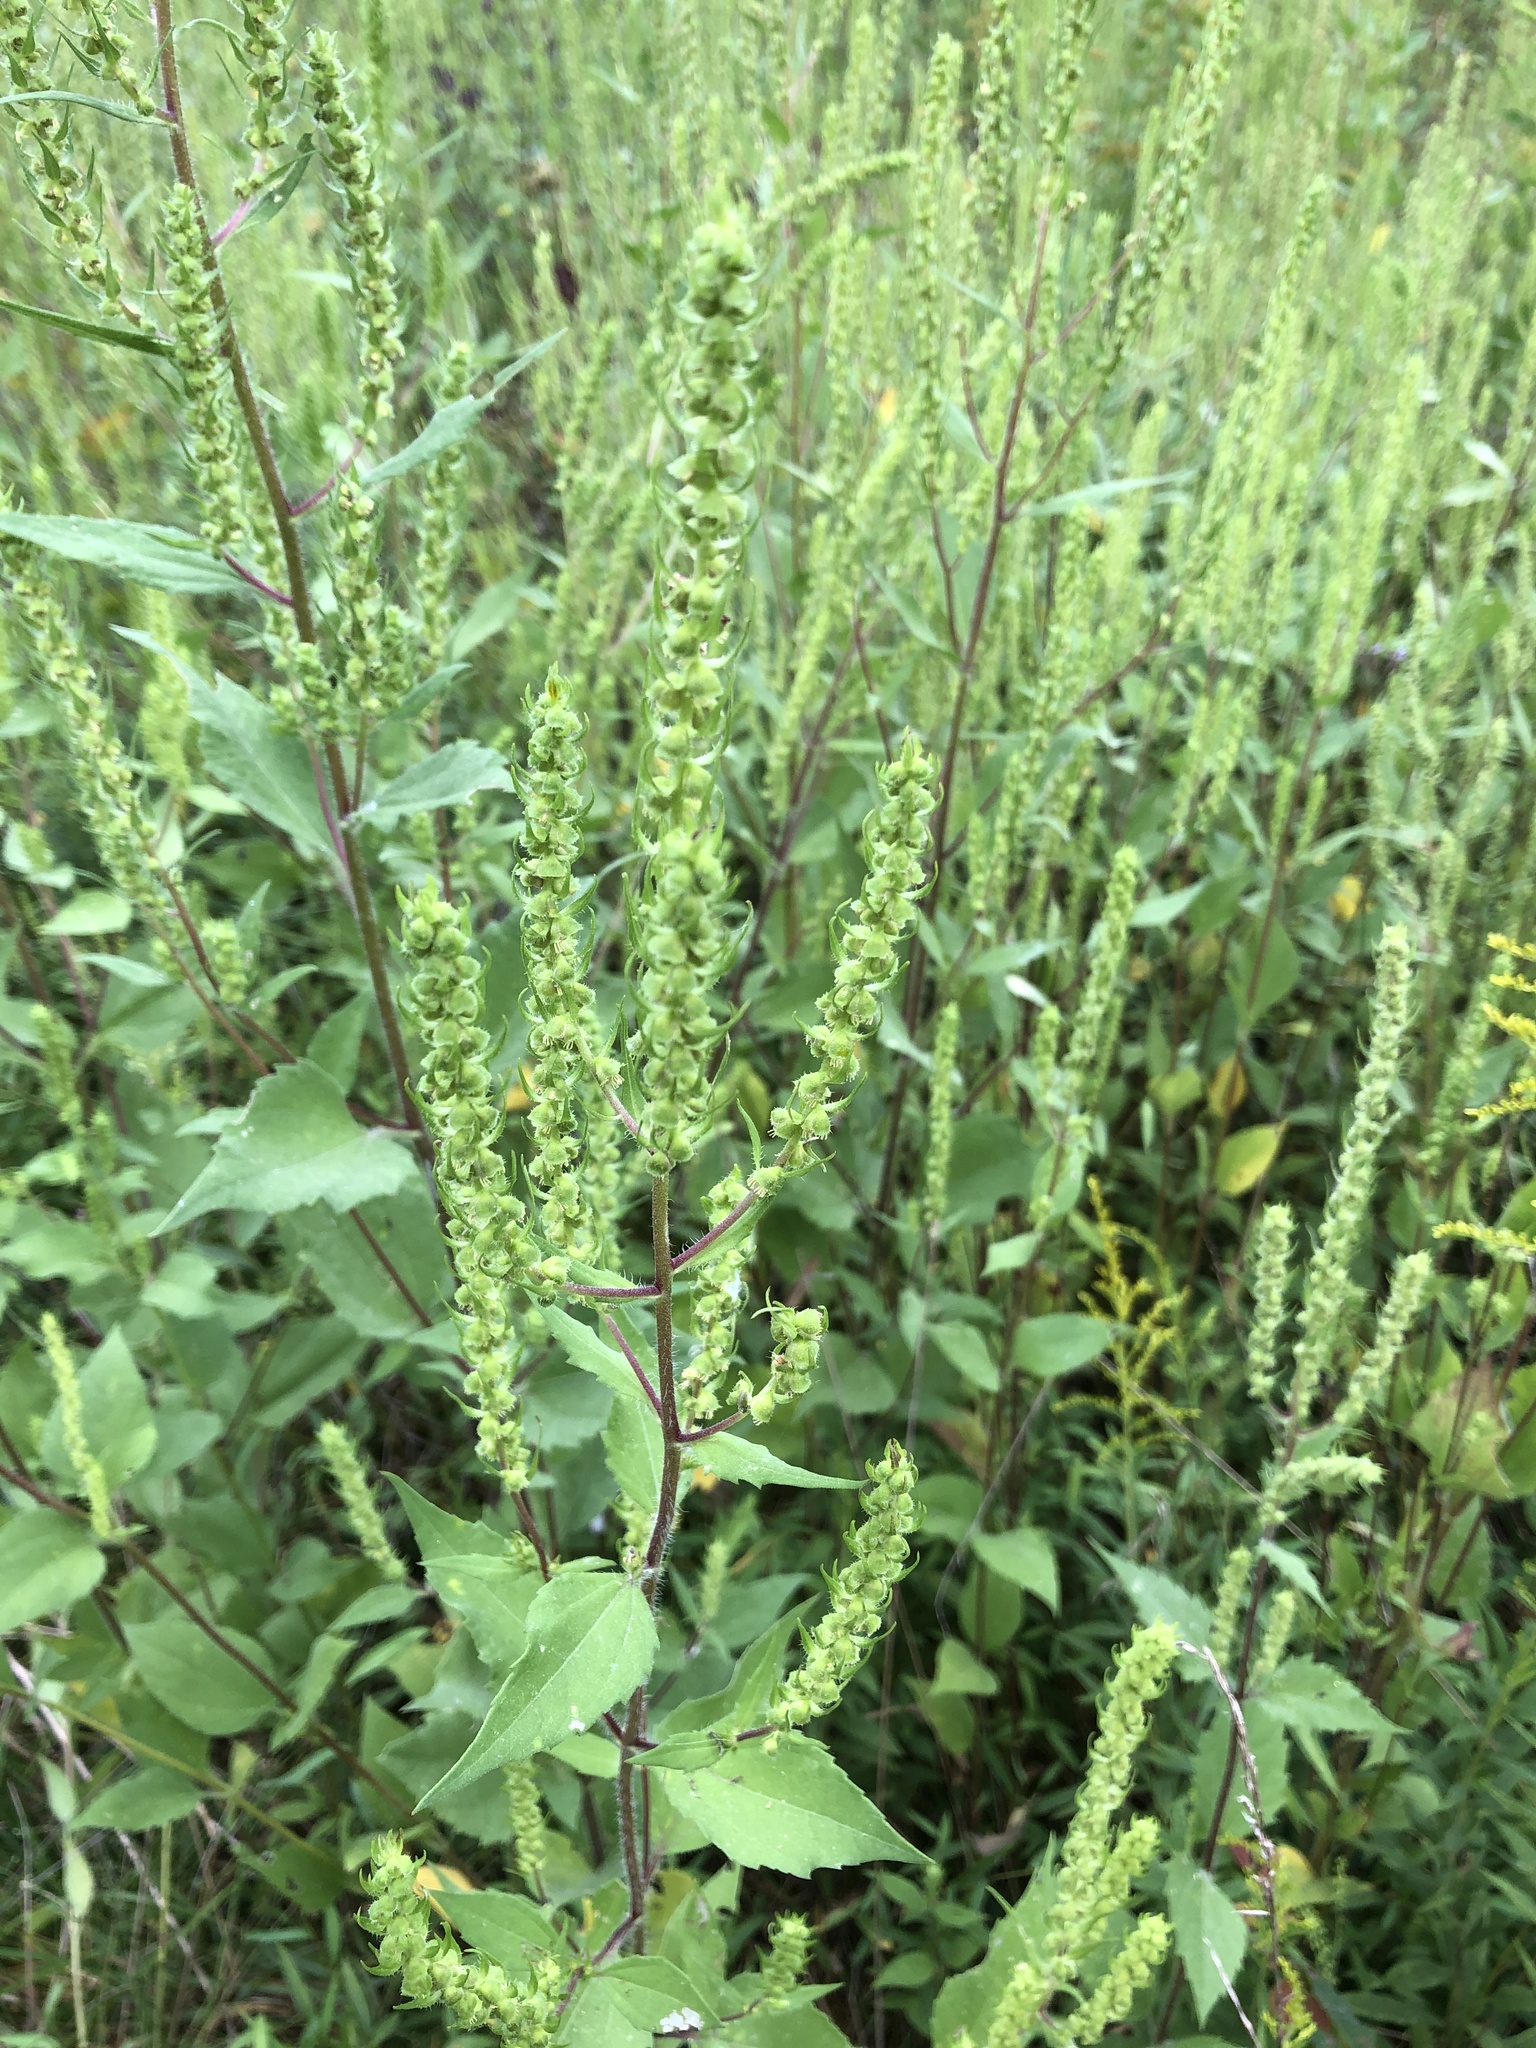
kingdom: Plantae
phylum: Tracheophyta
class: Magnoliopsida
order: Asterales
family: Asteraceae
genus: Iva
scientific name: Iva annua
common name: Marsh-elder
